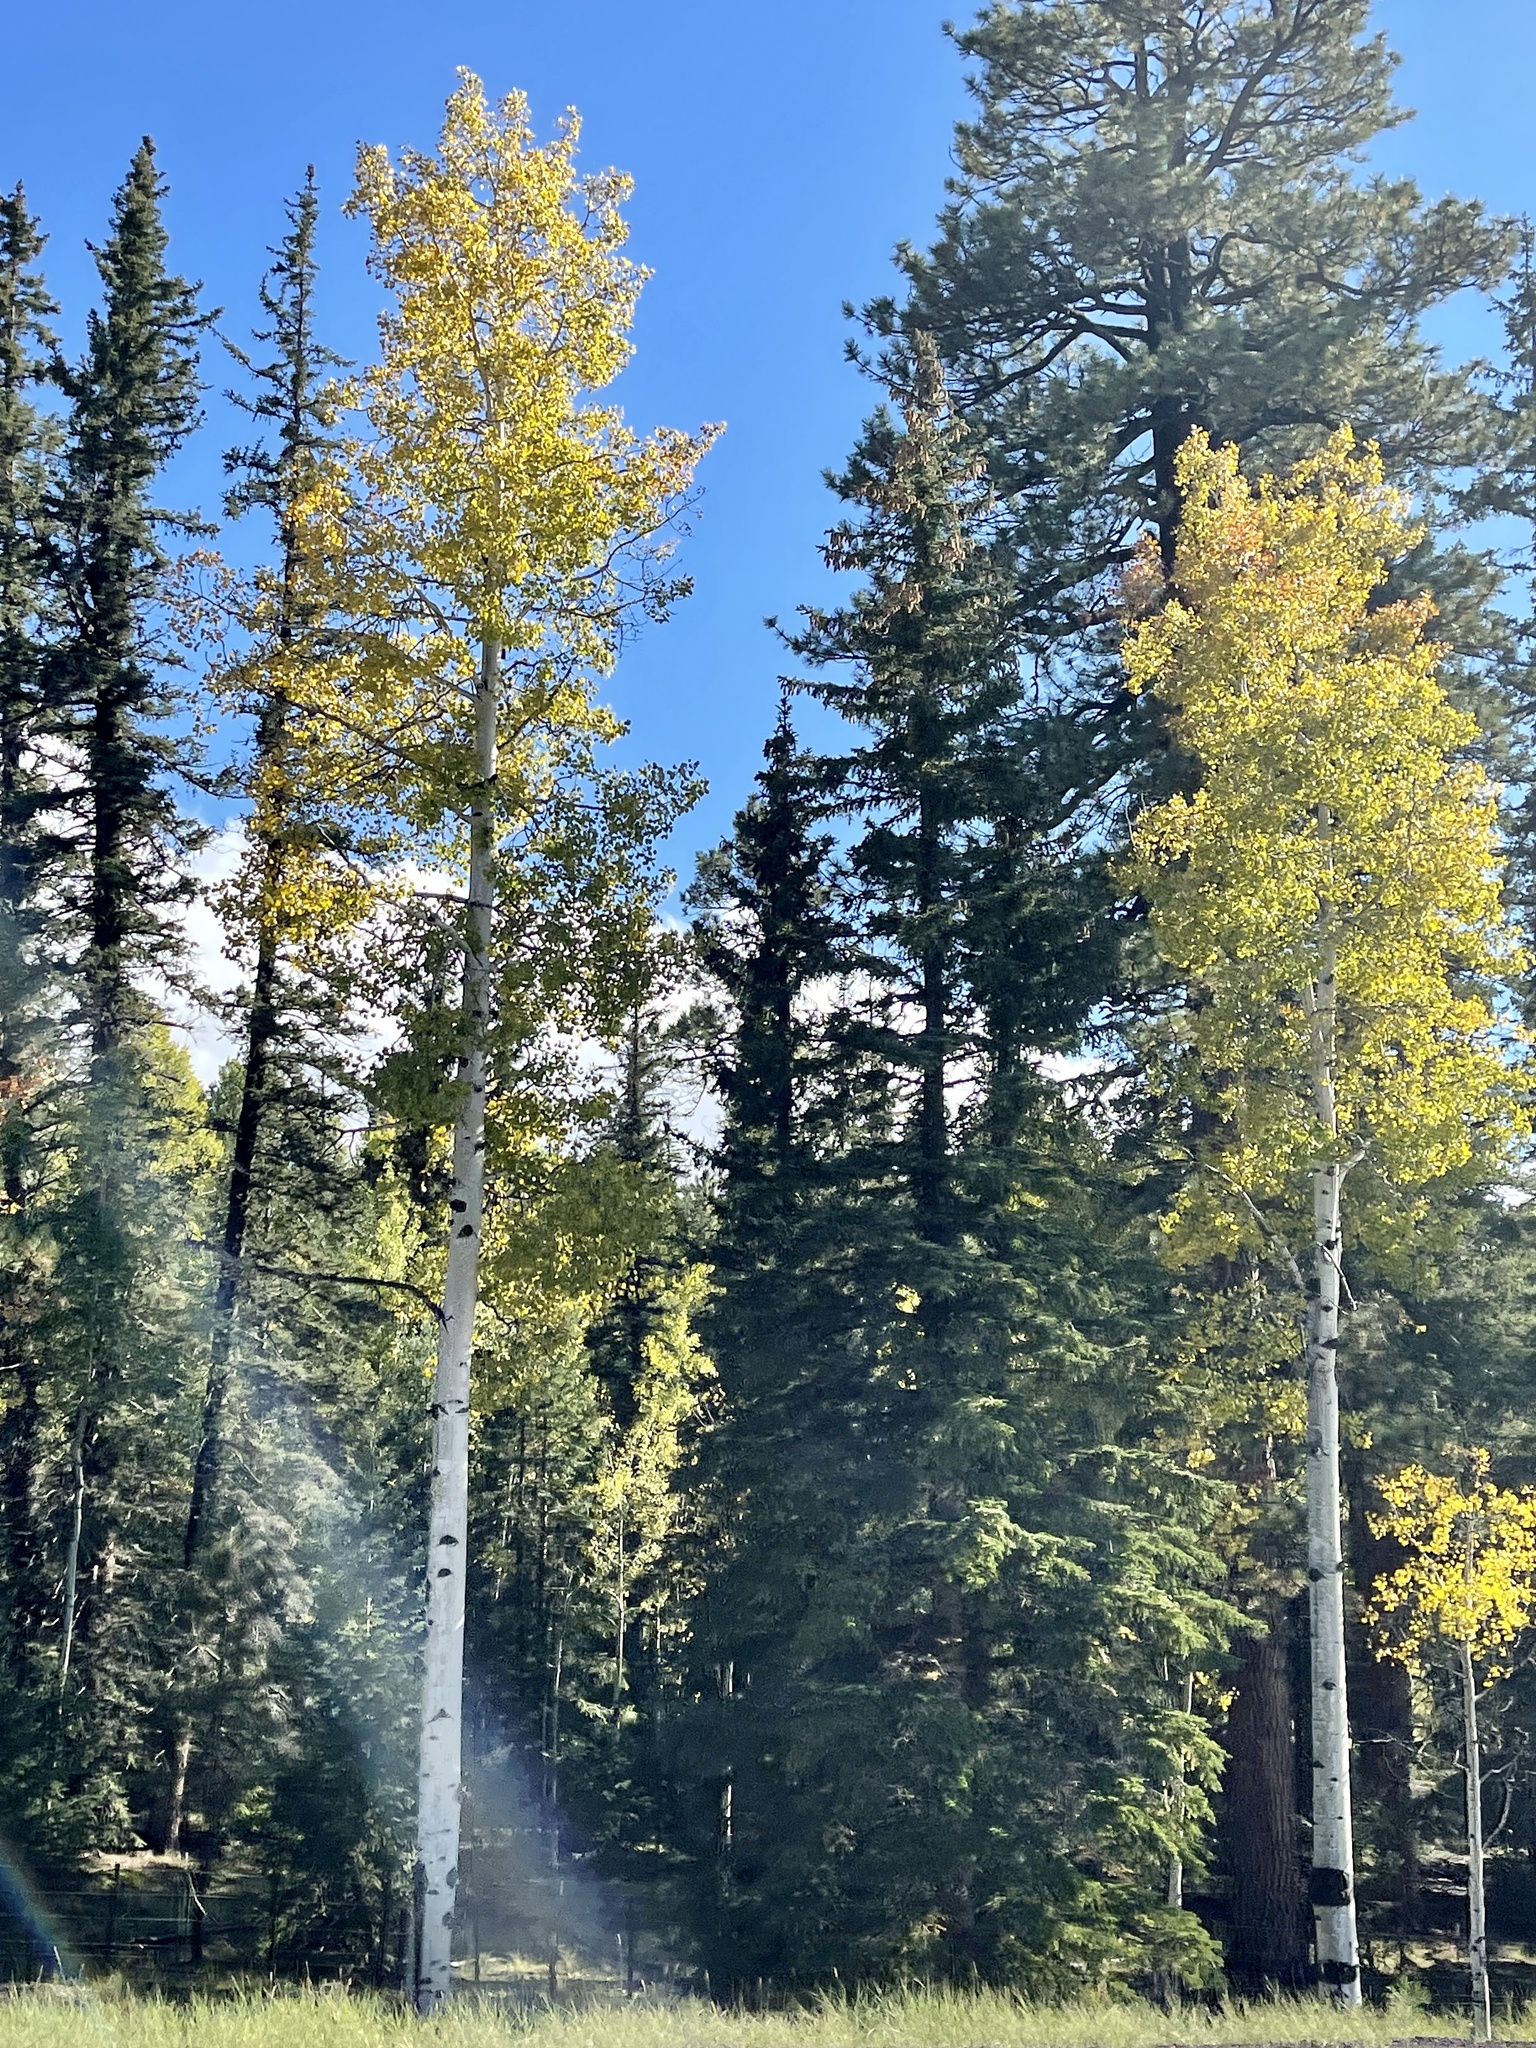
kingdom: Plantae
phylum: Tracheophyta
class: Magnoliopsida
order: Malpighiales
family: Salicaceae
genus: Populus
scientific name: Populus tremuloides
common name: Quaking aspen
